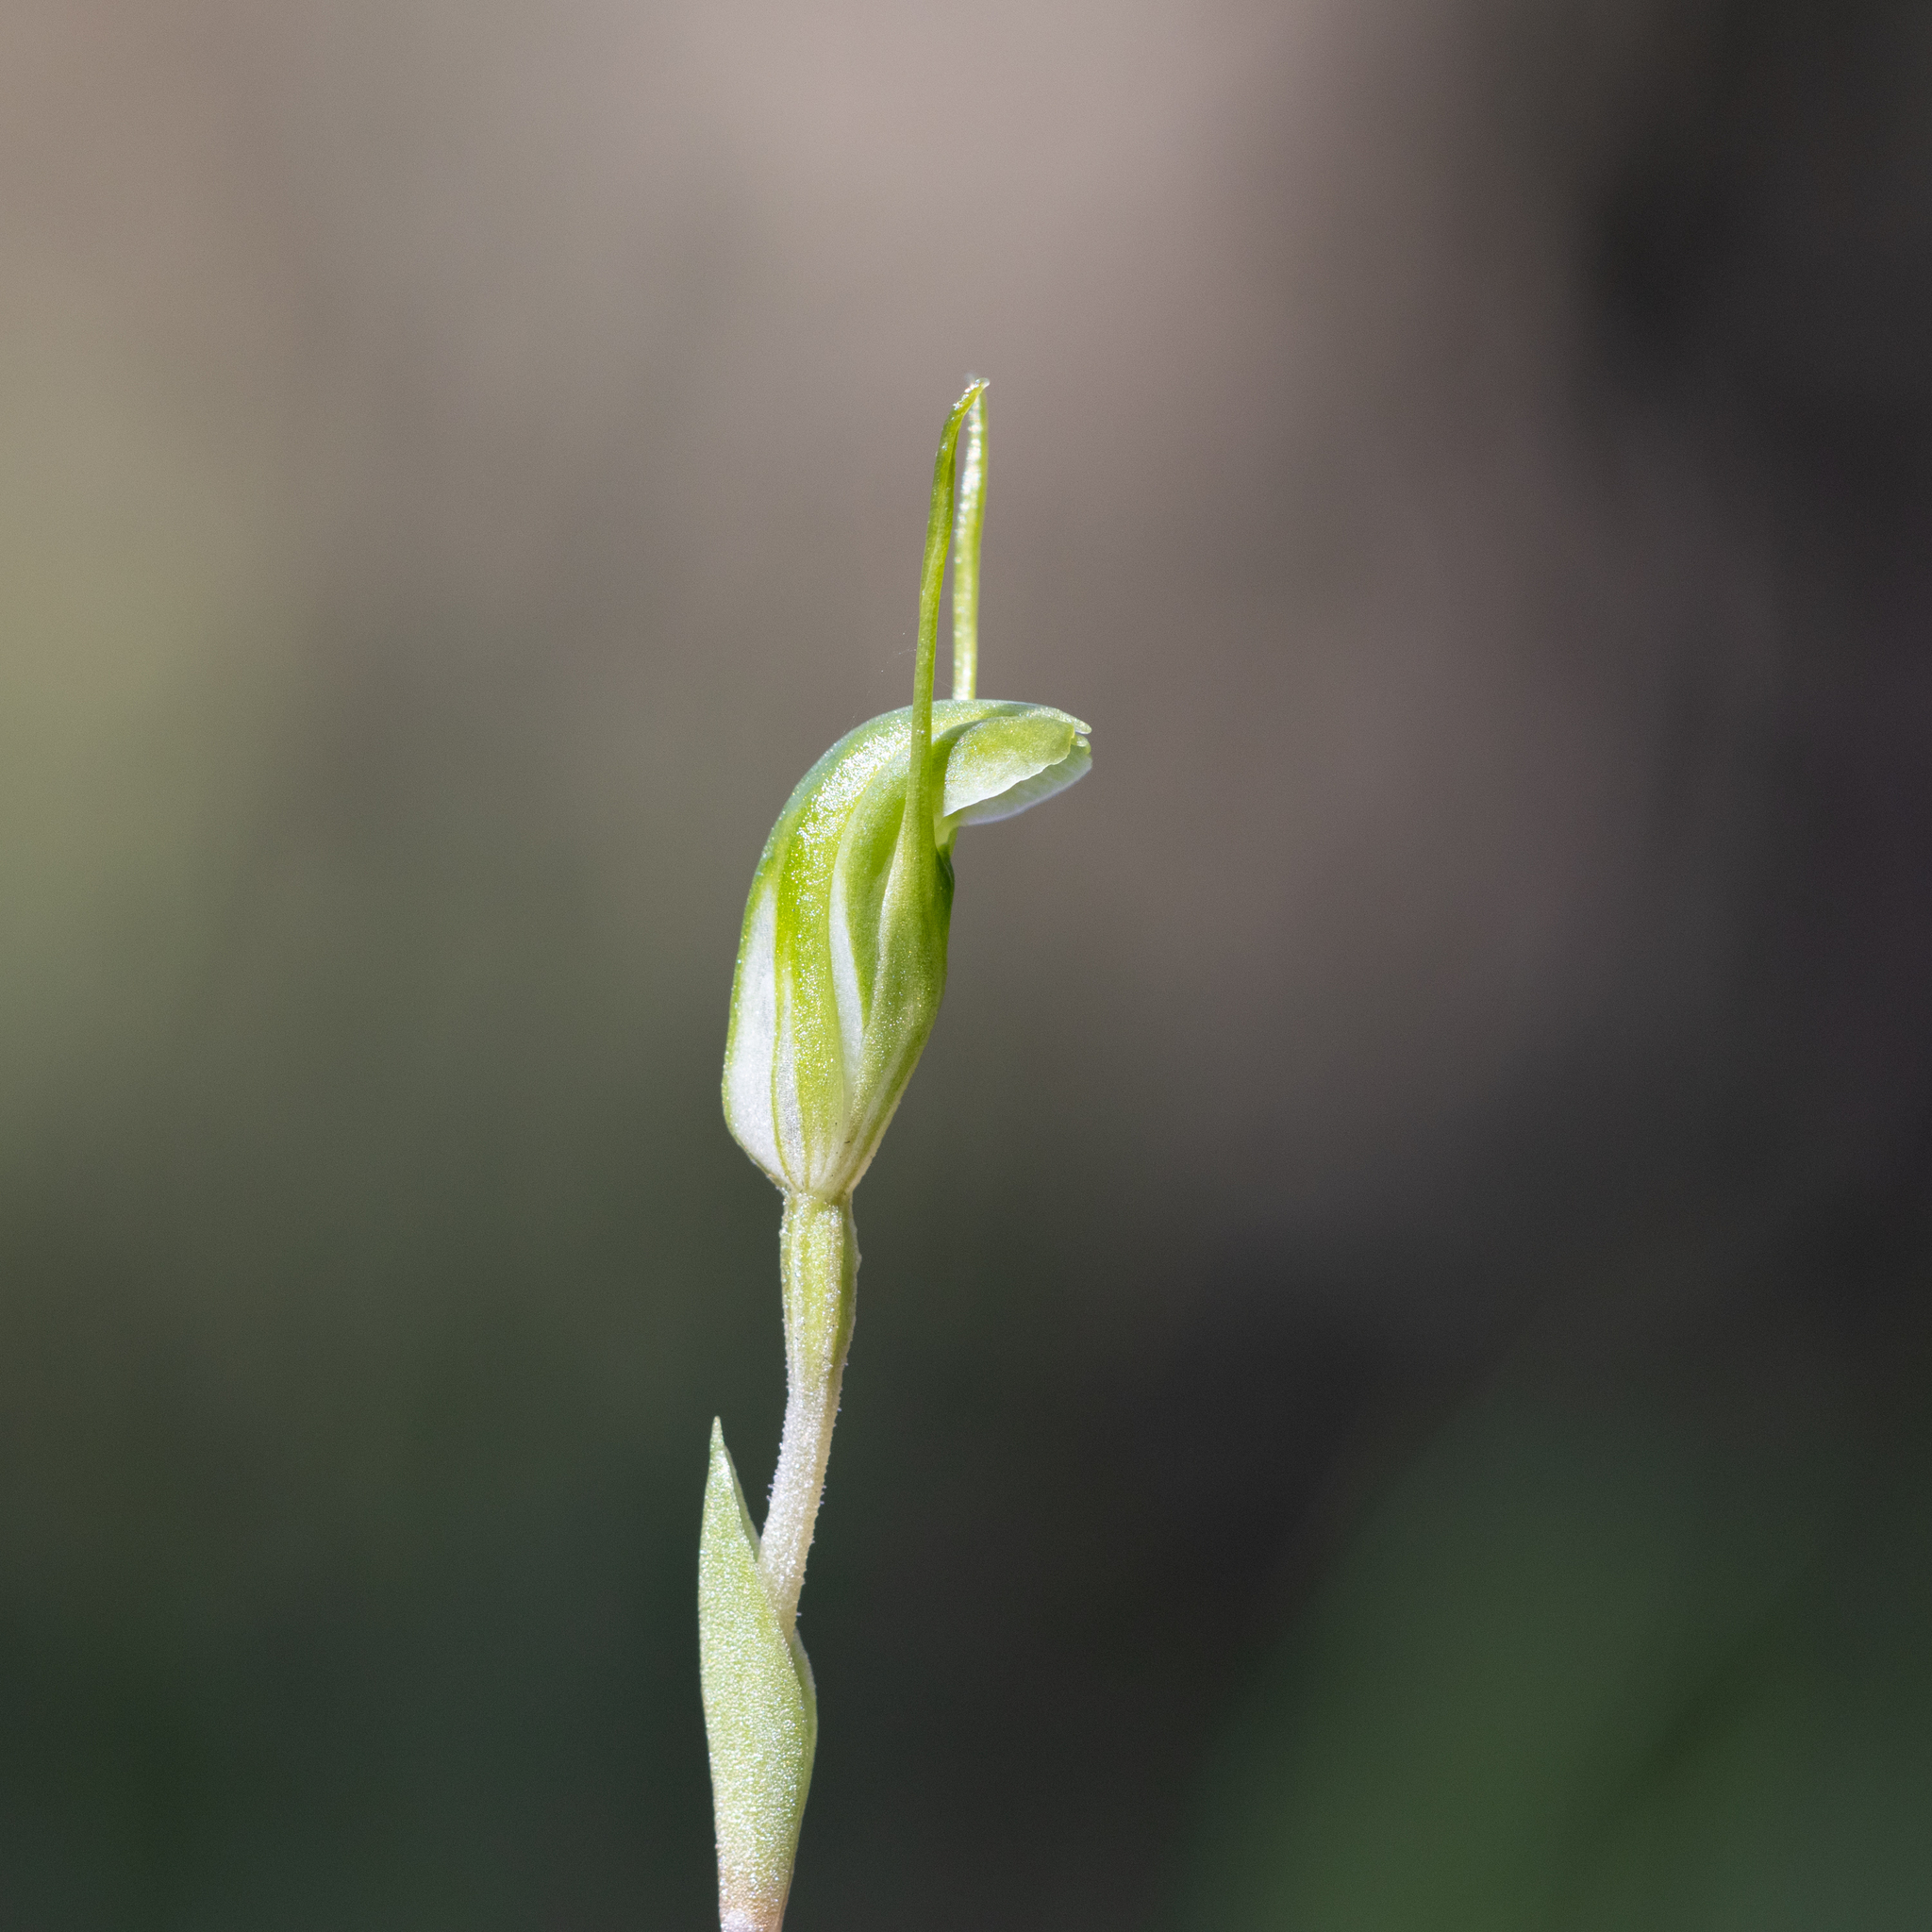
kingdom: Plantae
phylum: Tracheophyta
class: Liliopsida
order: Asparagales
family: Orchidaceae
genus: Pterostylis
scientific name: Pterostylis nana
